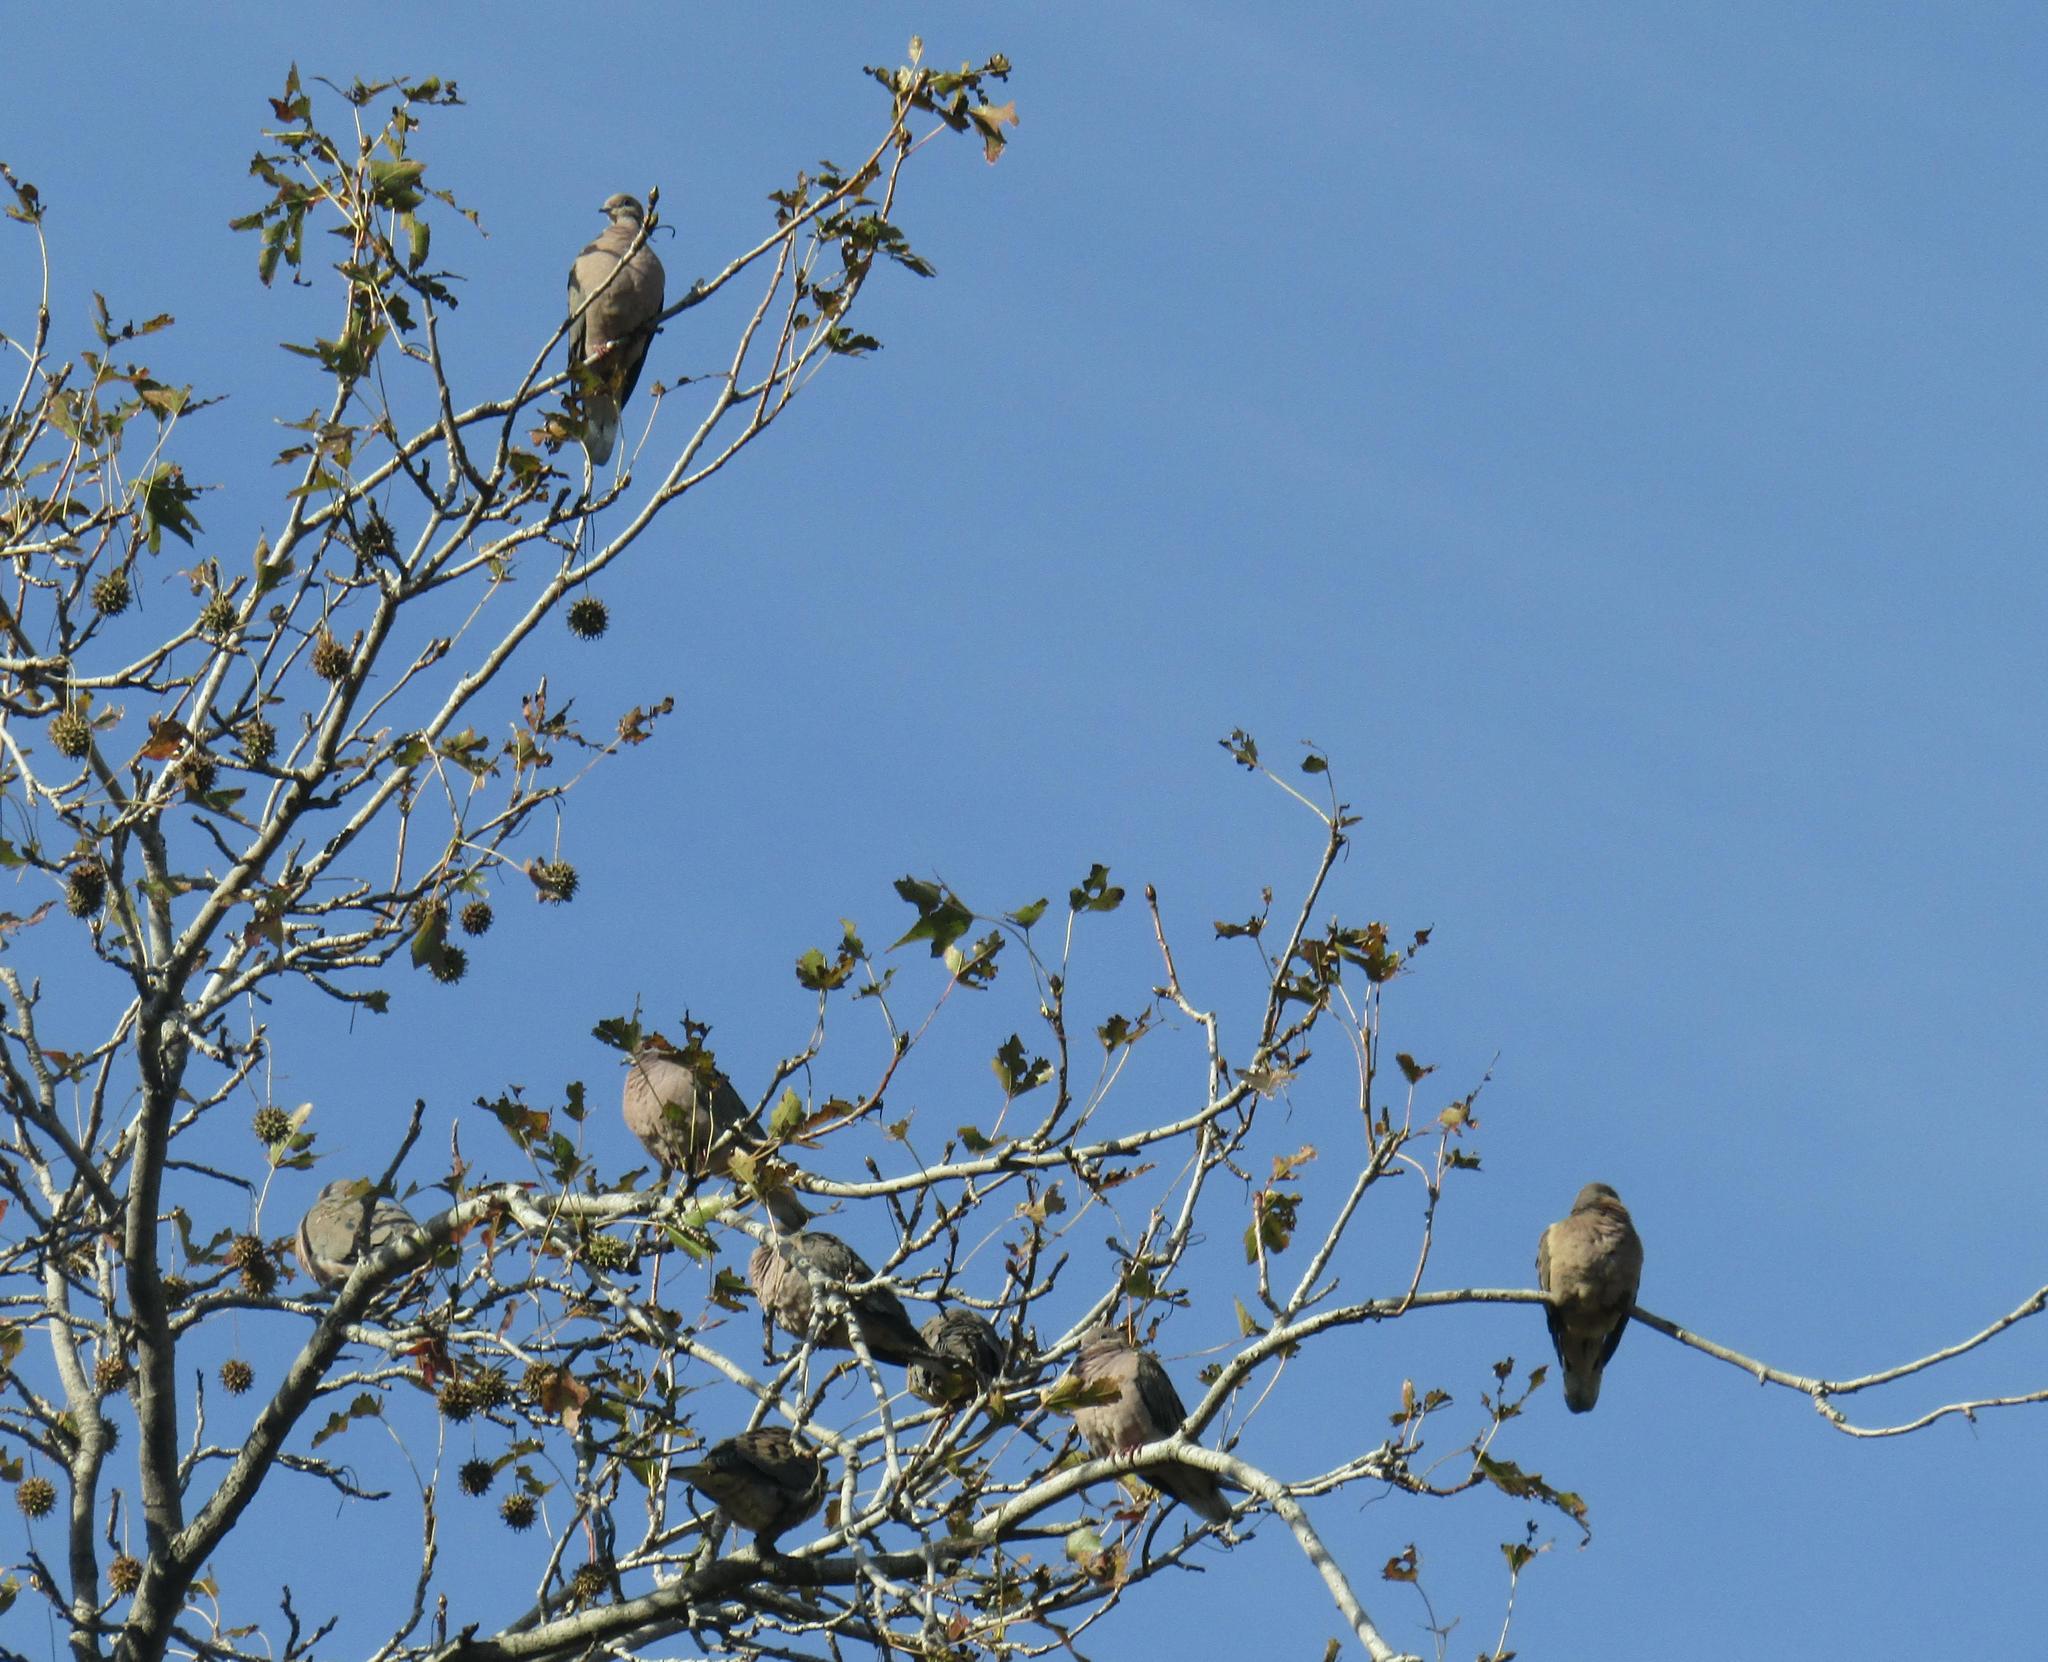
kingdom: Animalia
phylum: Chordata
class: Aves
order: Columbiformes
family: Columbidae
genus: Zenaida
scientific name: Zenaida auriculata
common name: Eared dove
